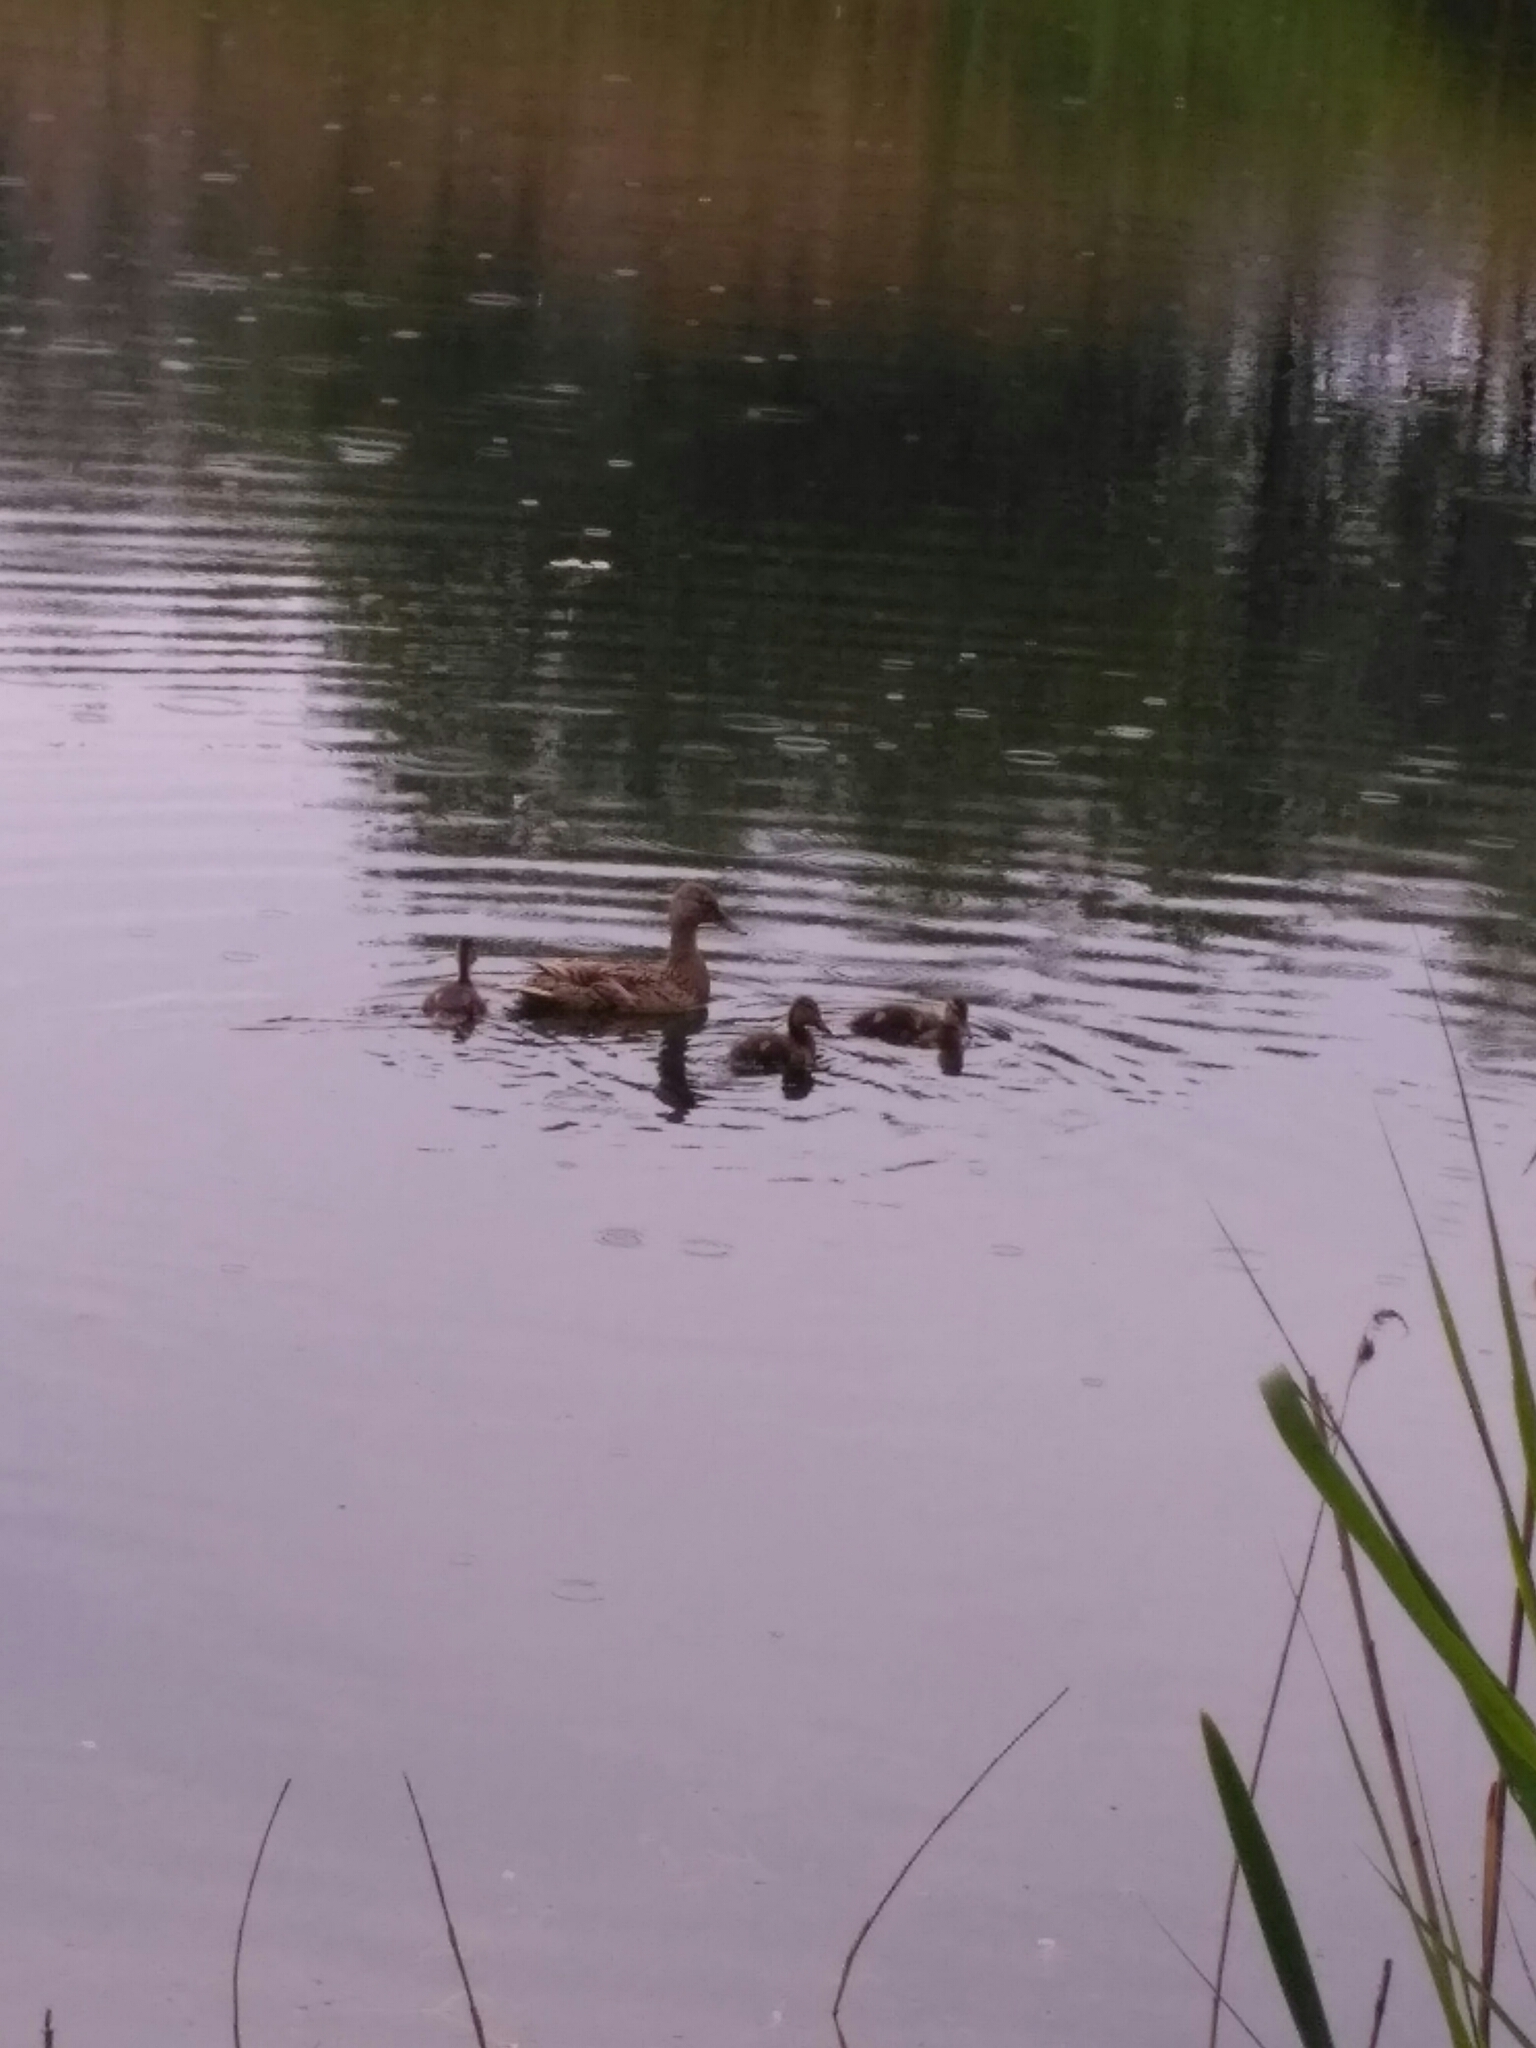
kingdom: Animalia
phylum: Chordata
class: Aves
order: Anseriformes
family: Anatidae
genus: Anas
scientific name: Anas platyrhynchos
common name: Mallard
